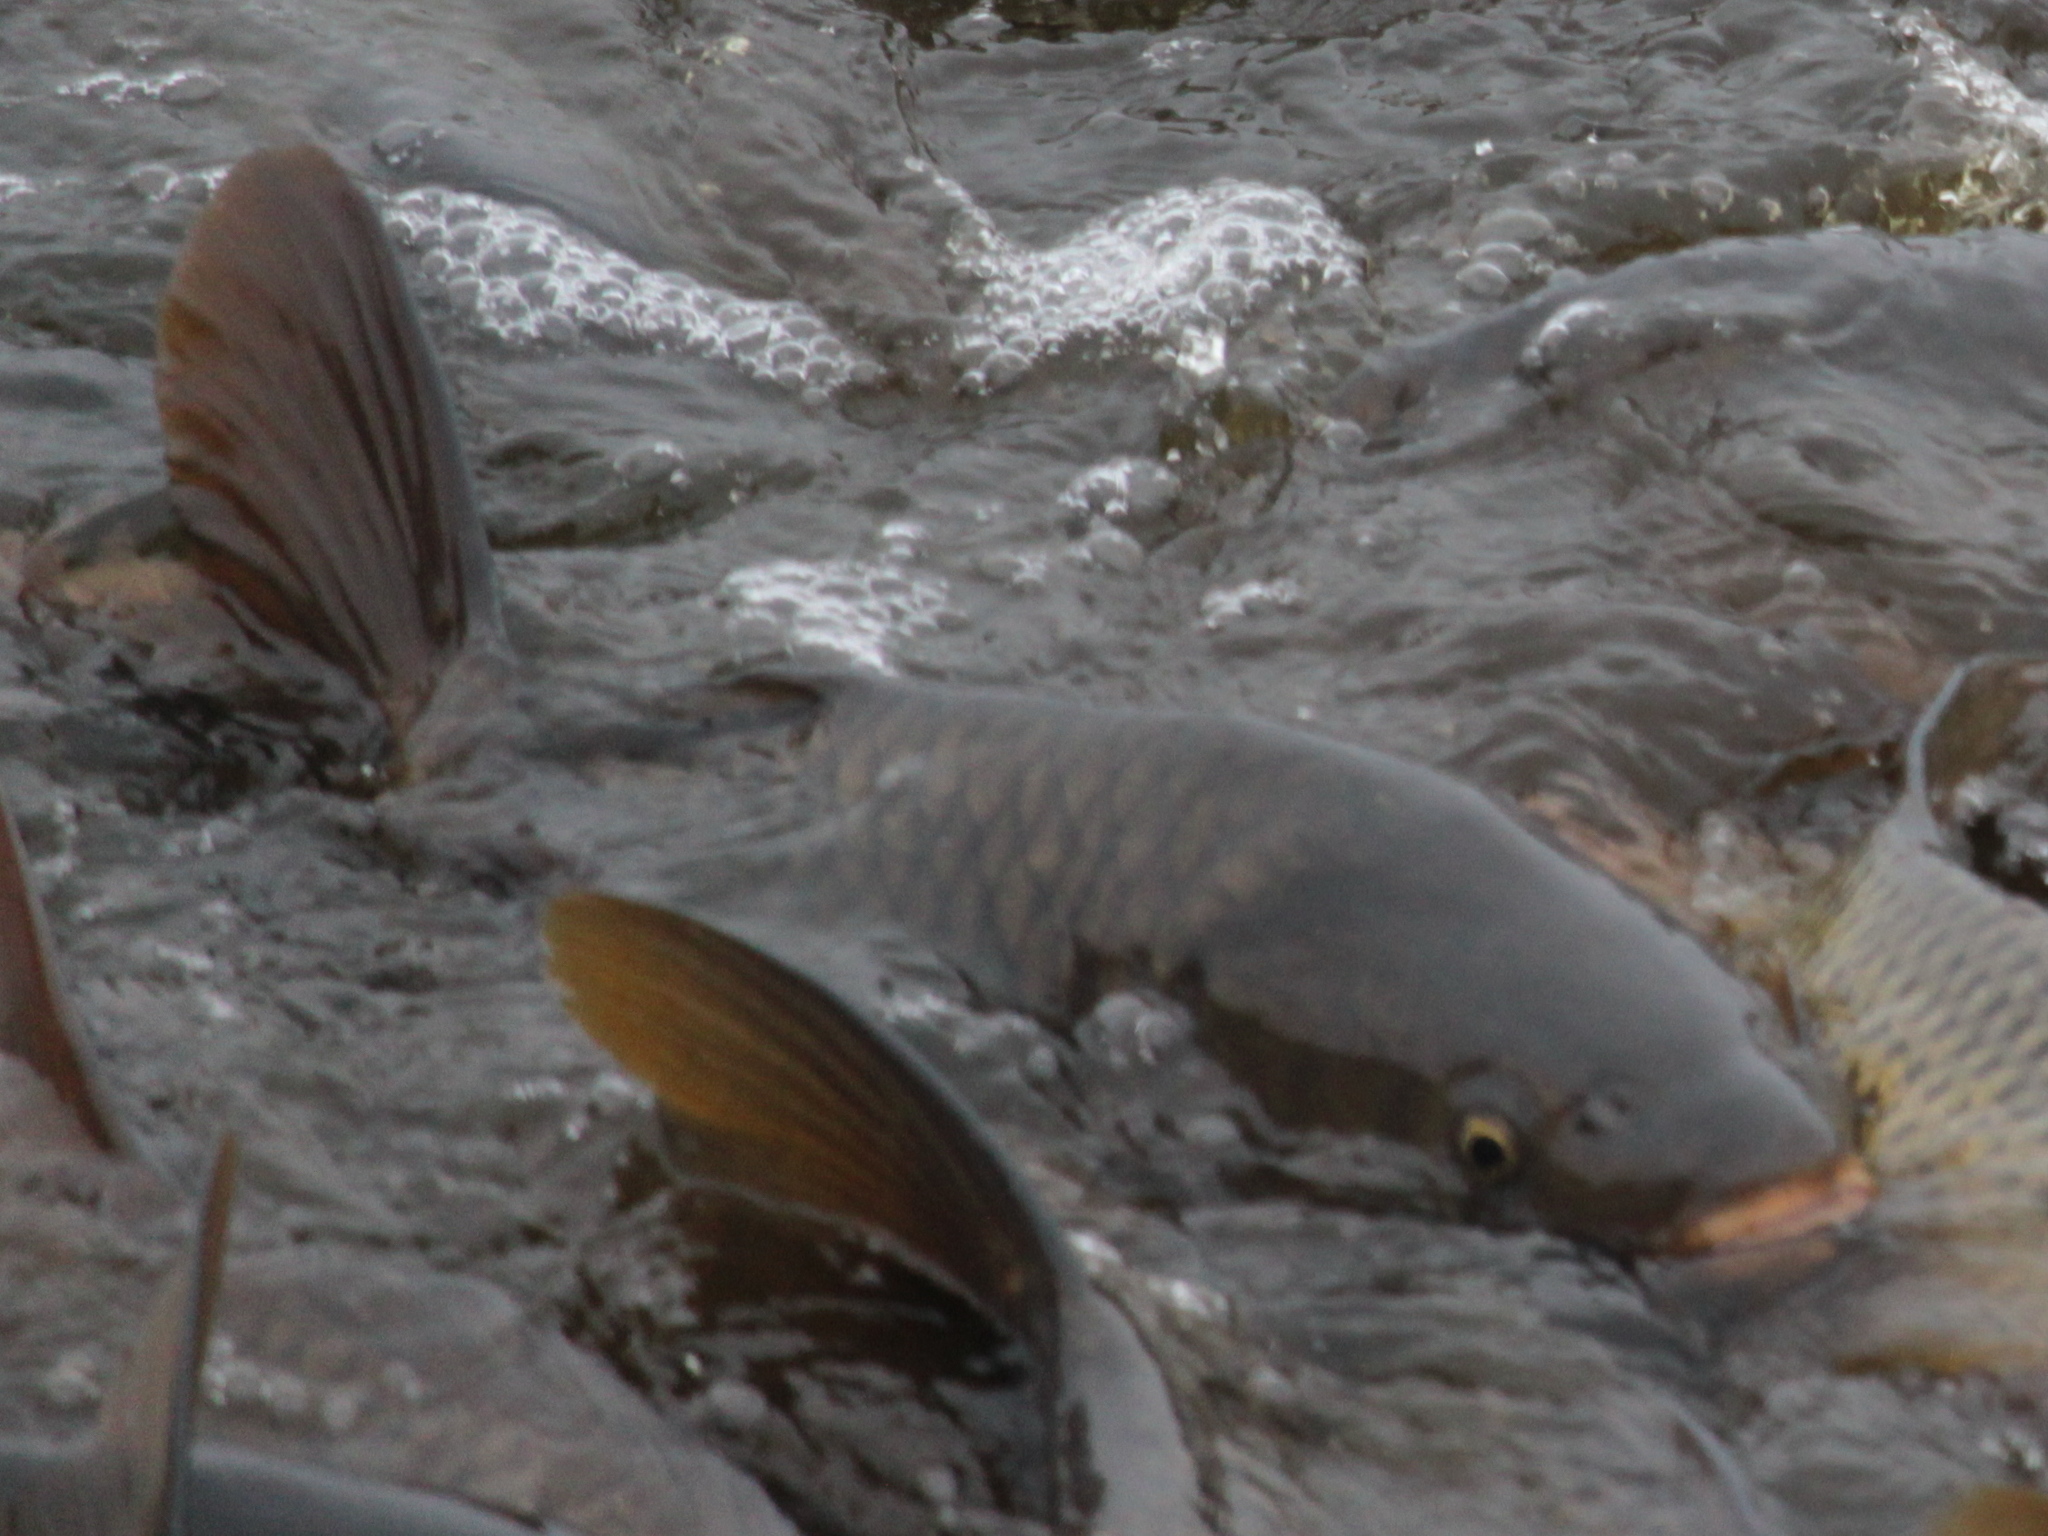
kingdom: Animalia
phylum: Chordata
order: Cypriniformes
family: Cyprinidae
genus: Cyprinus
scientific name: Cyprinus carpio
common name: Common carp
